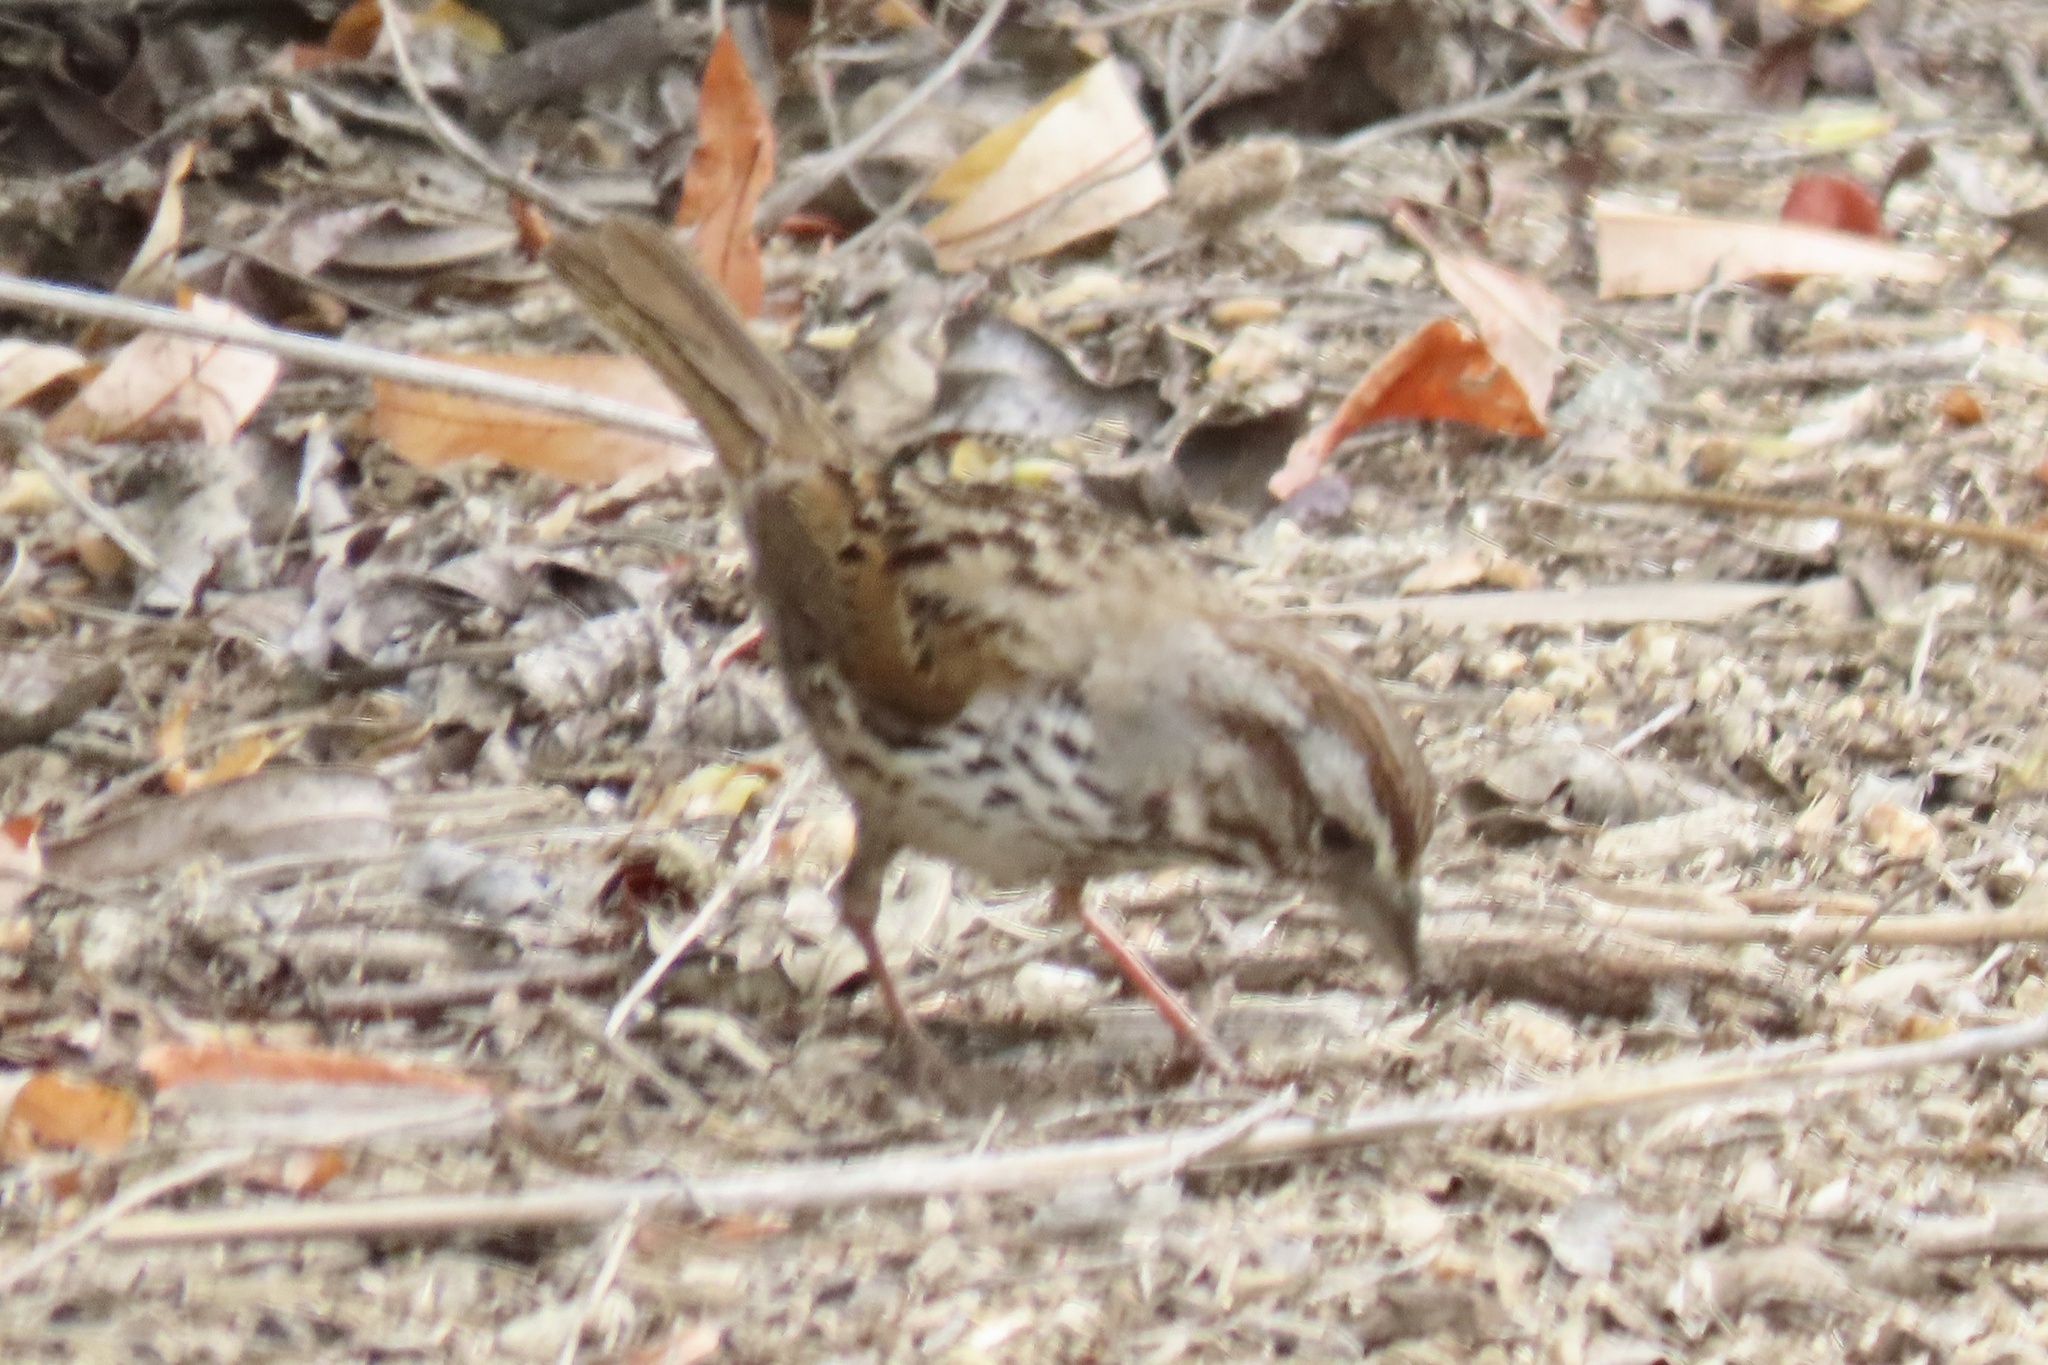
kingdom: Animalia
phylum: Chordata
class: Aves
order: Passeriformes
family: Passerellidae
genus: Melospiza
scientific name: Melospiza melodia
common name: Song sparrow
